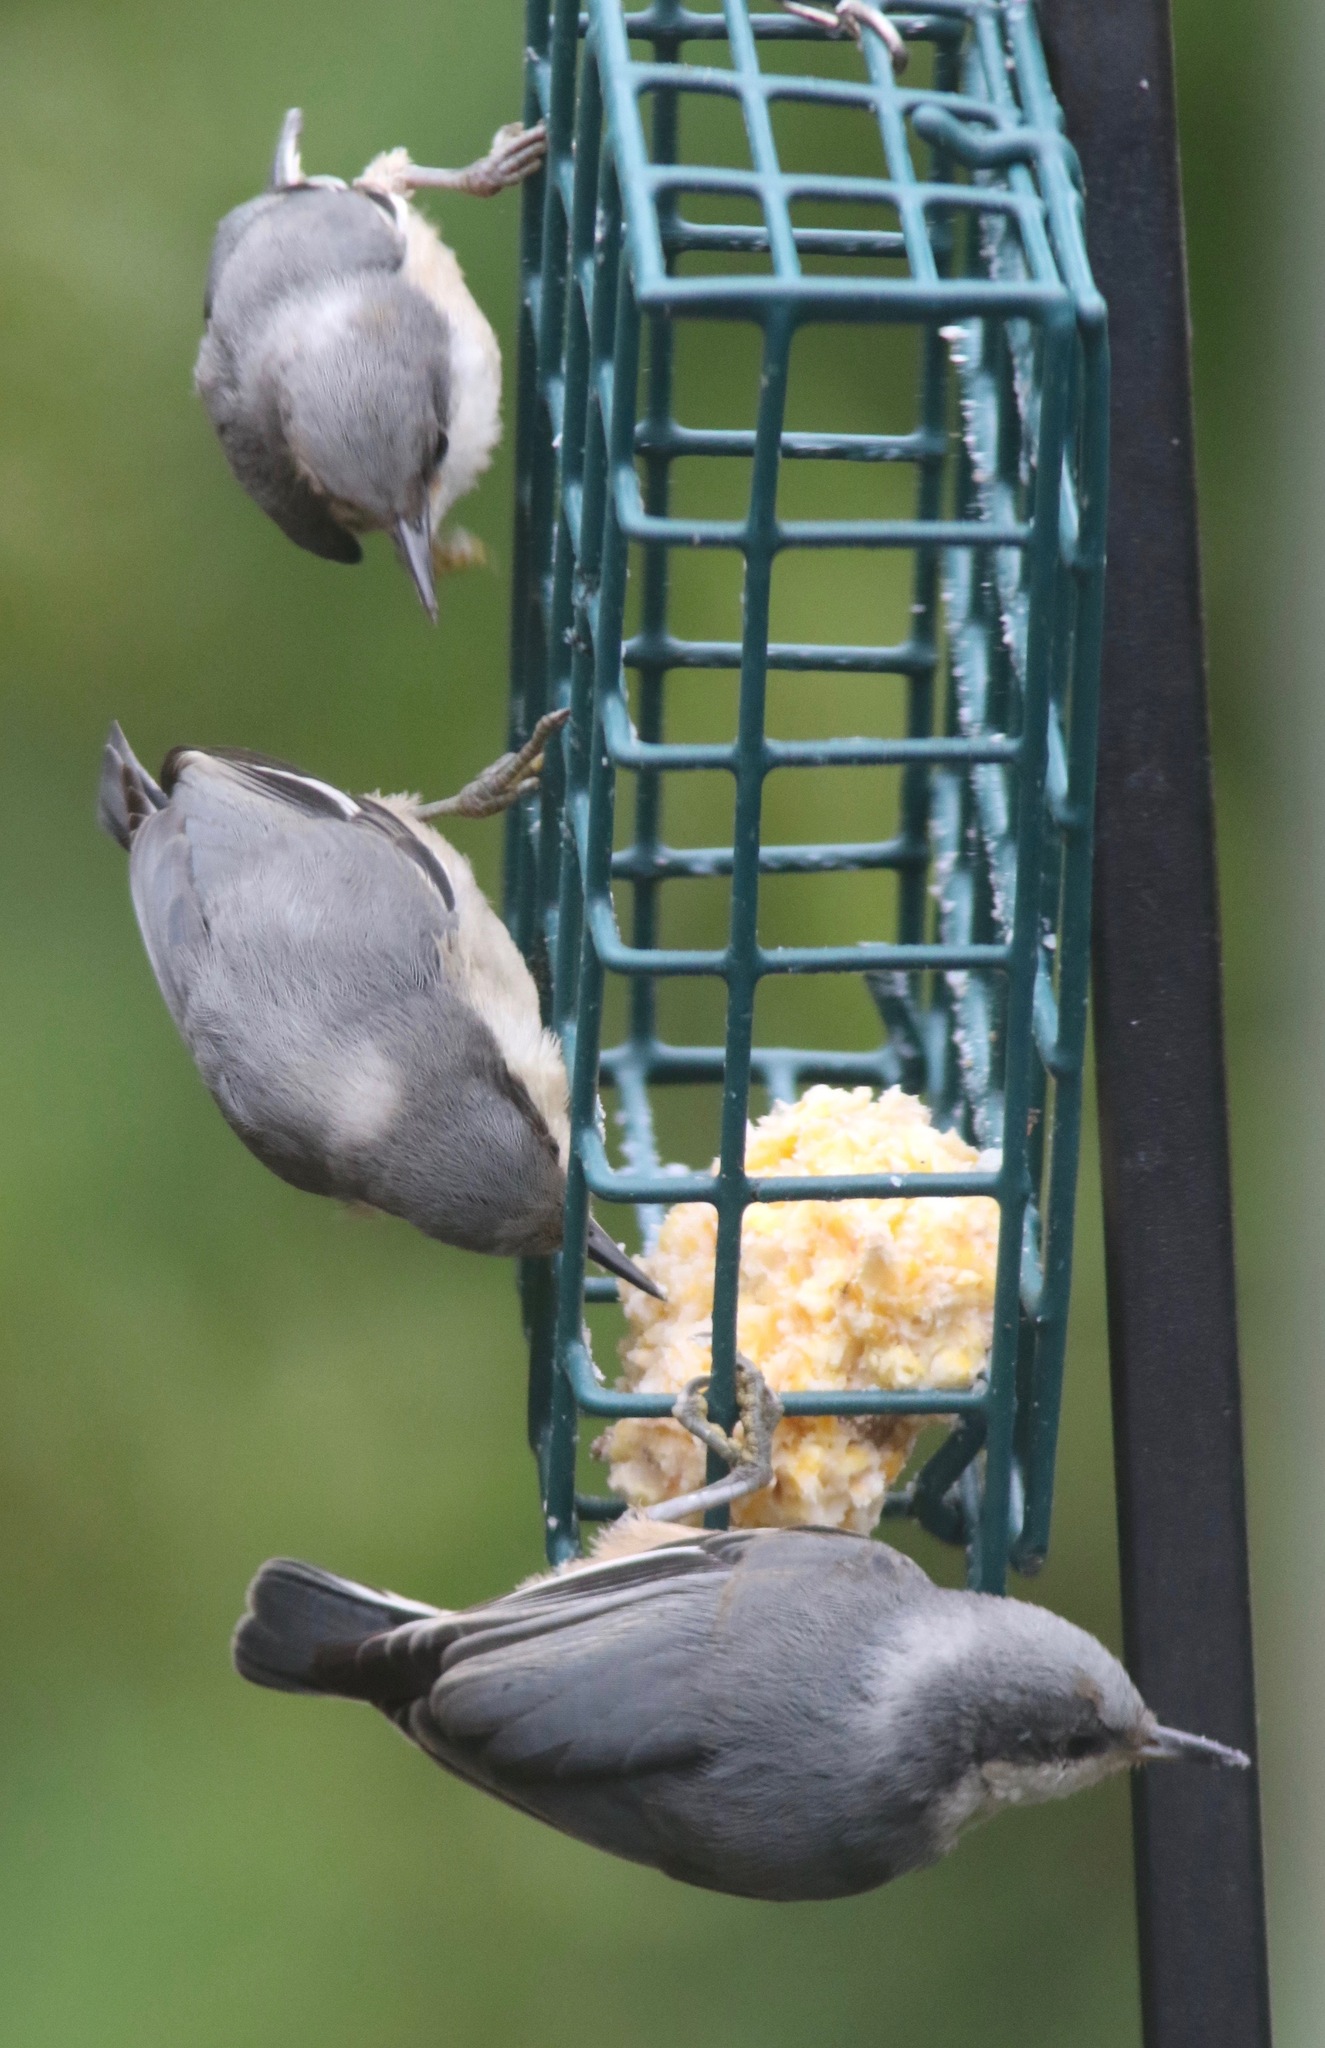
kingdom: Animalia
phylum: Chordata
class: Aves
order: Passeriformes
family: Sittidae
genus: Sitta
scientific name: Sitta pygmaea
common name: Pygmy nuthatch
